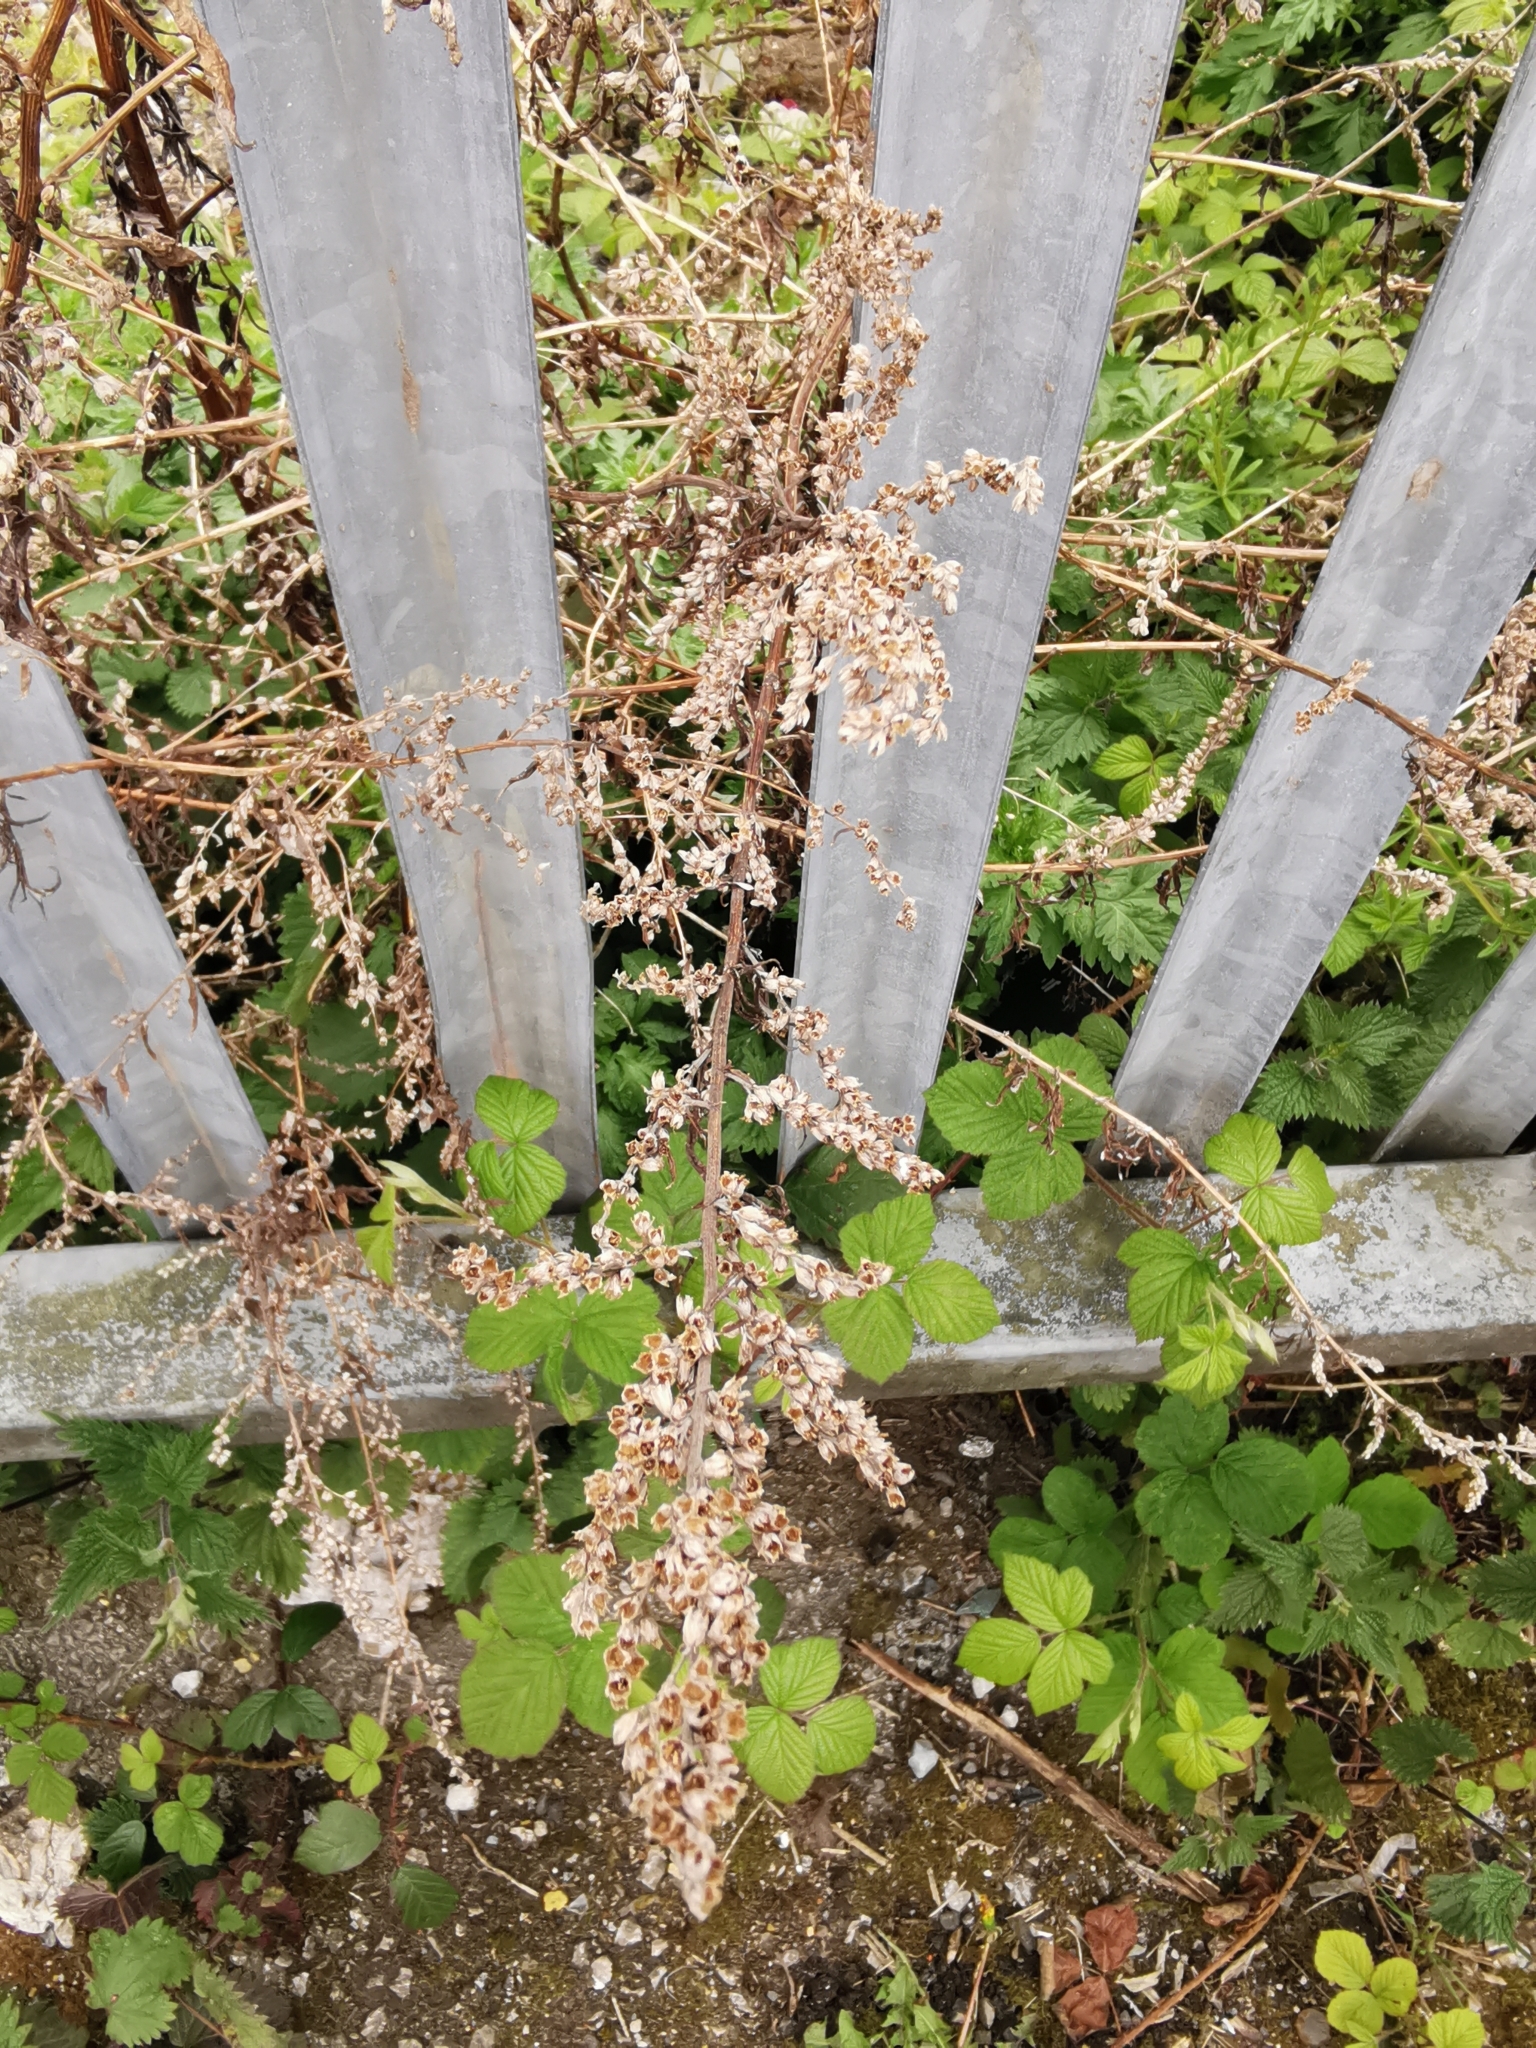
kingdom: Plantae
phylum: Tracheophyta
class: Magnoliopsida
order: Asterales
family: Asteraceae
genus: Artemisia
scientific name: Artemisia vulgaris
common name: Mugwort
